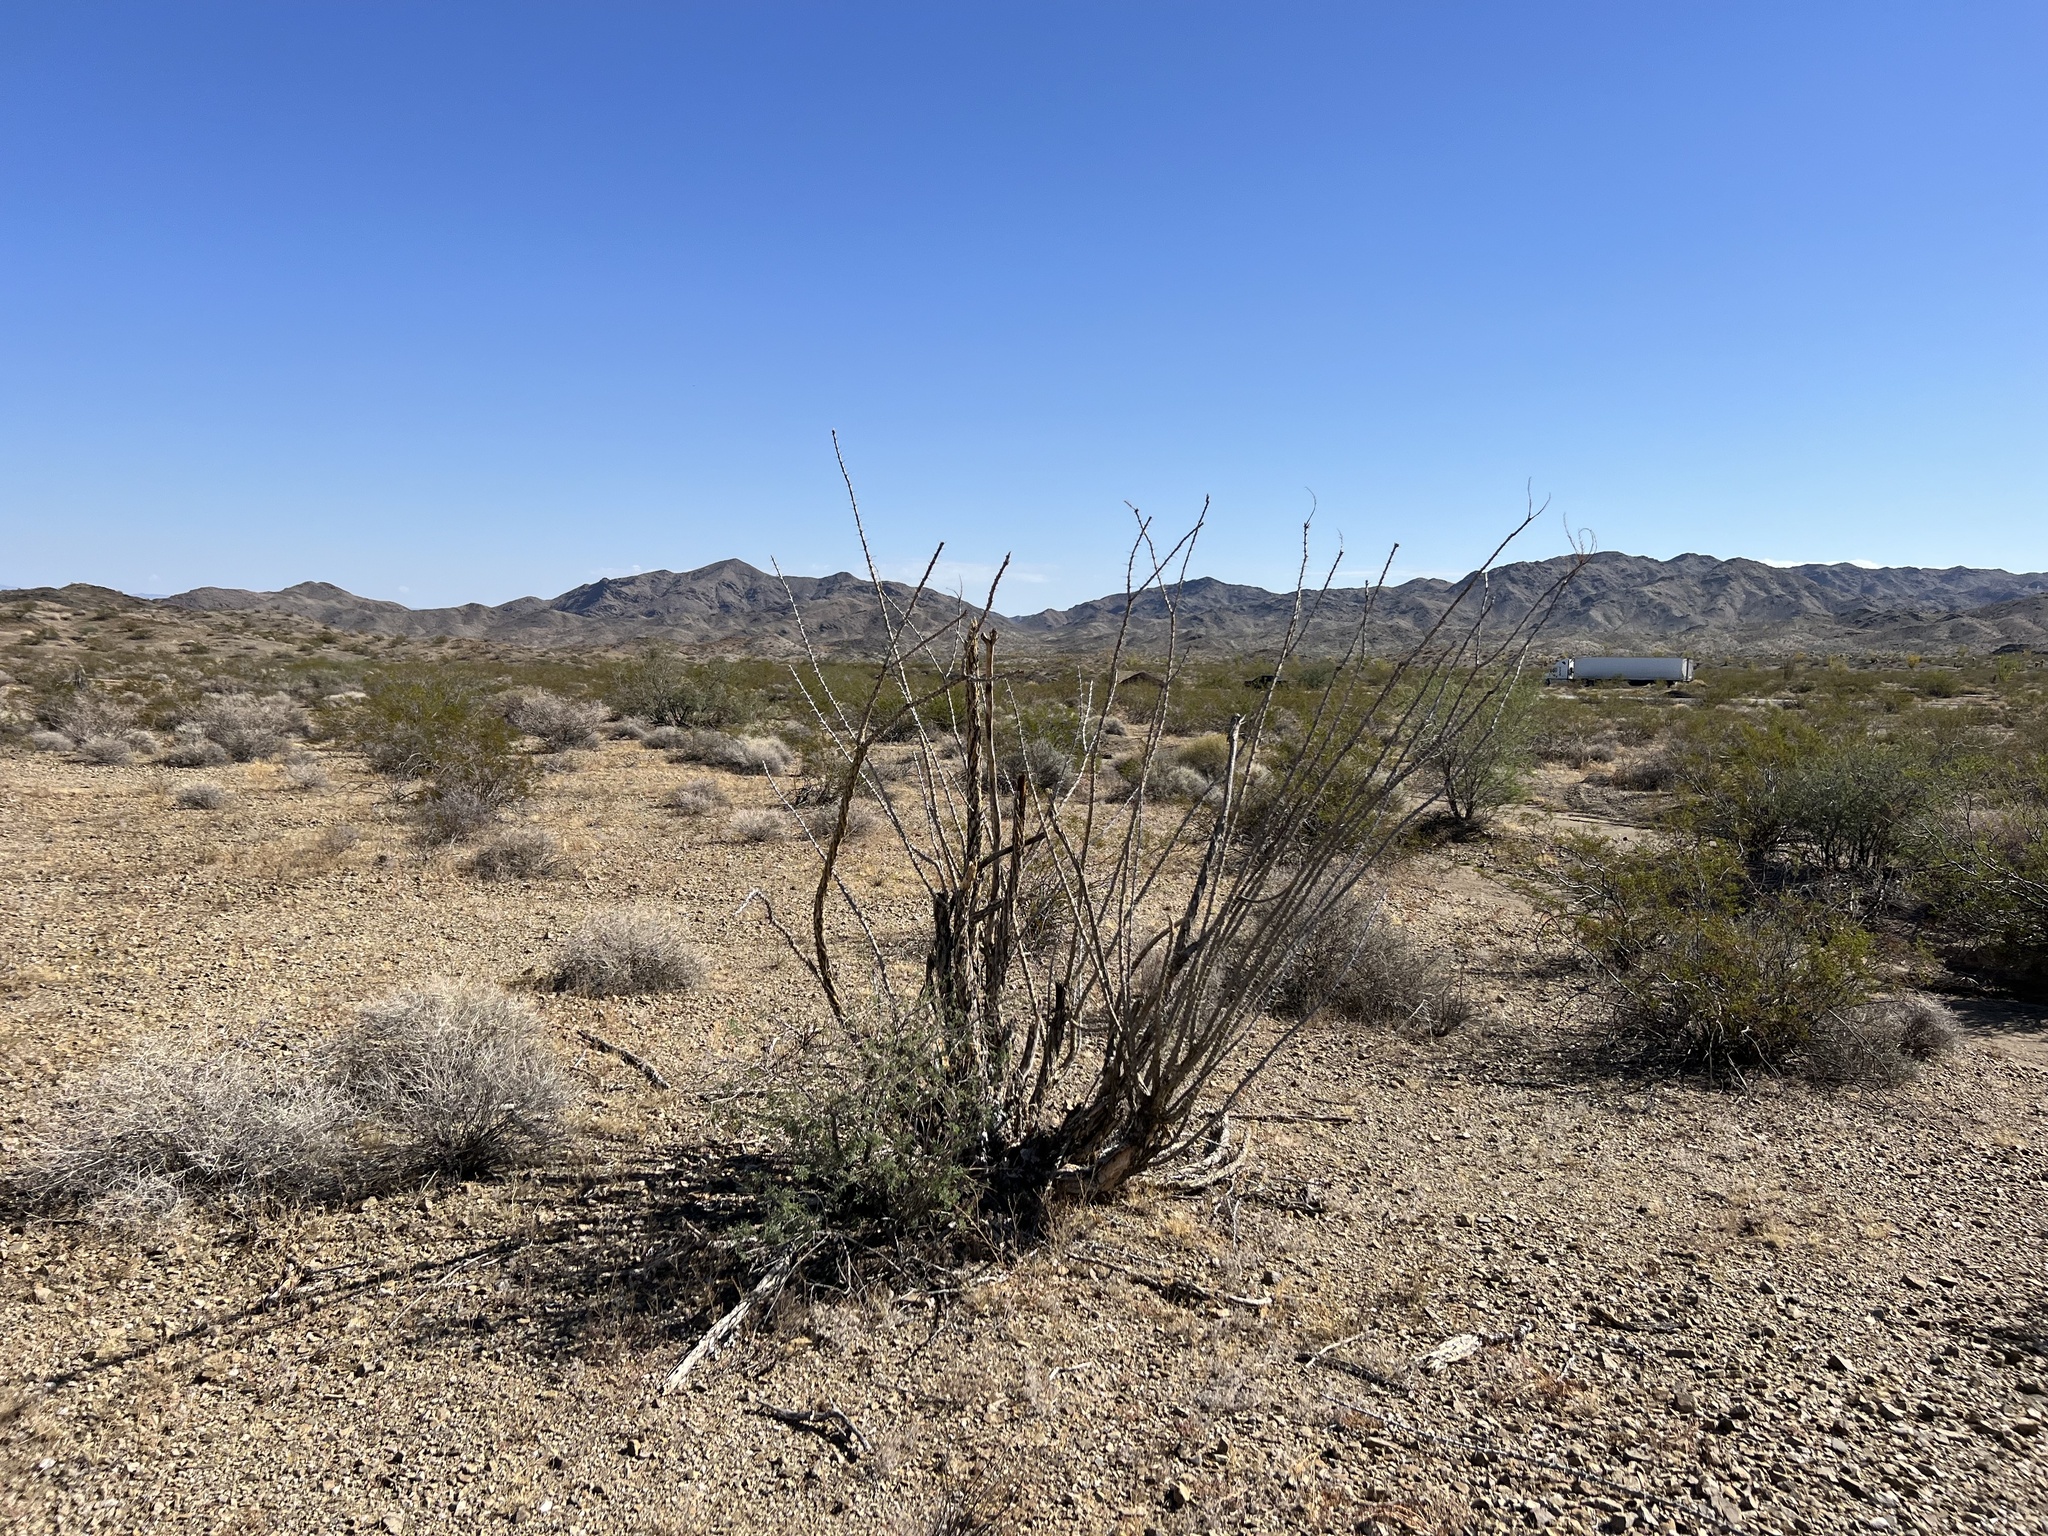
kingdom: Plantae
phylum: Tracheophyta
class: Magnoliopsida
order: Ericales
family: Fouquieriaceae
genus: Fouquieria
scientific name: Fouquieria splendens
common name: Vine-cactus
